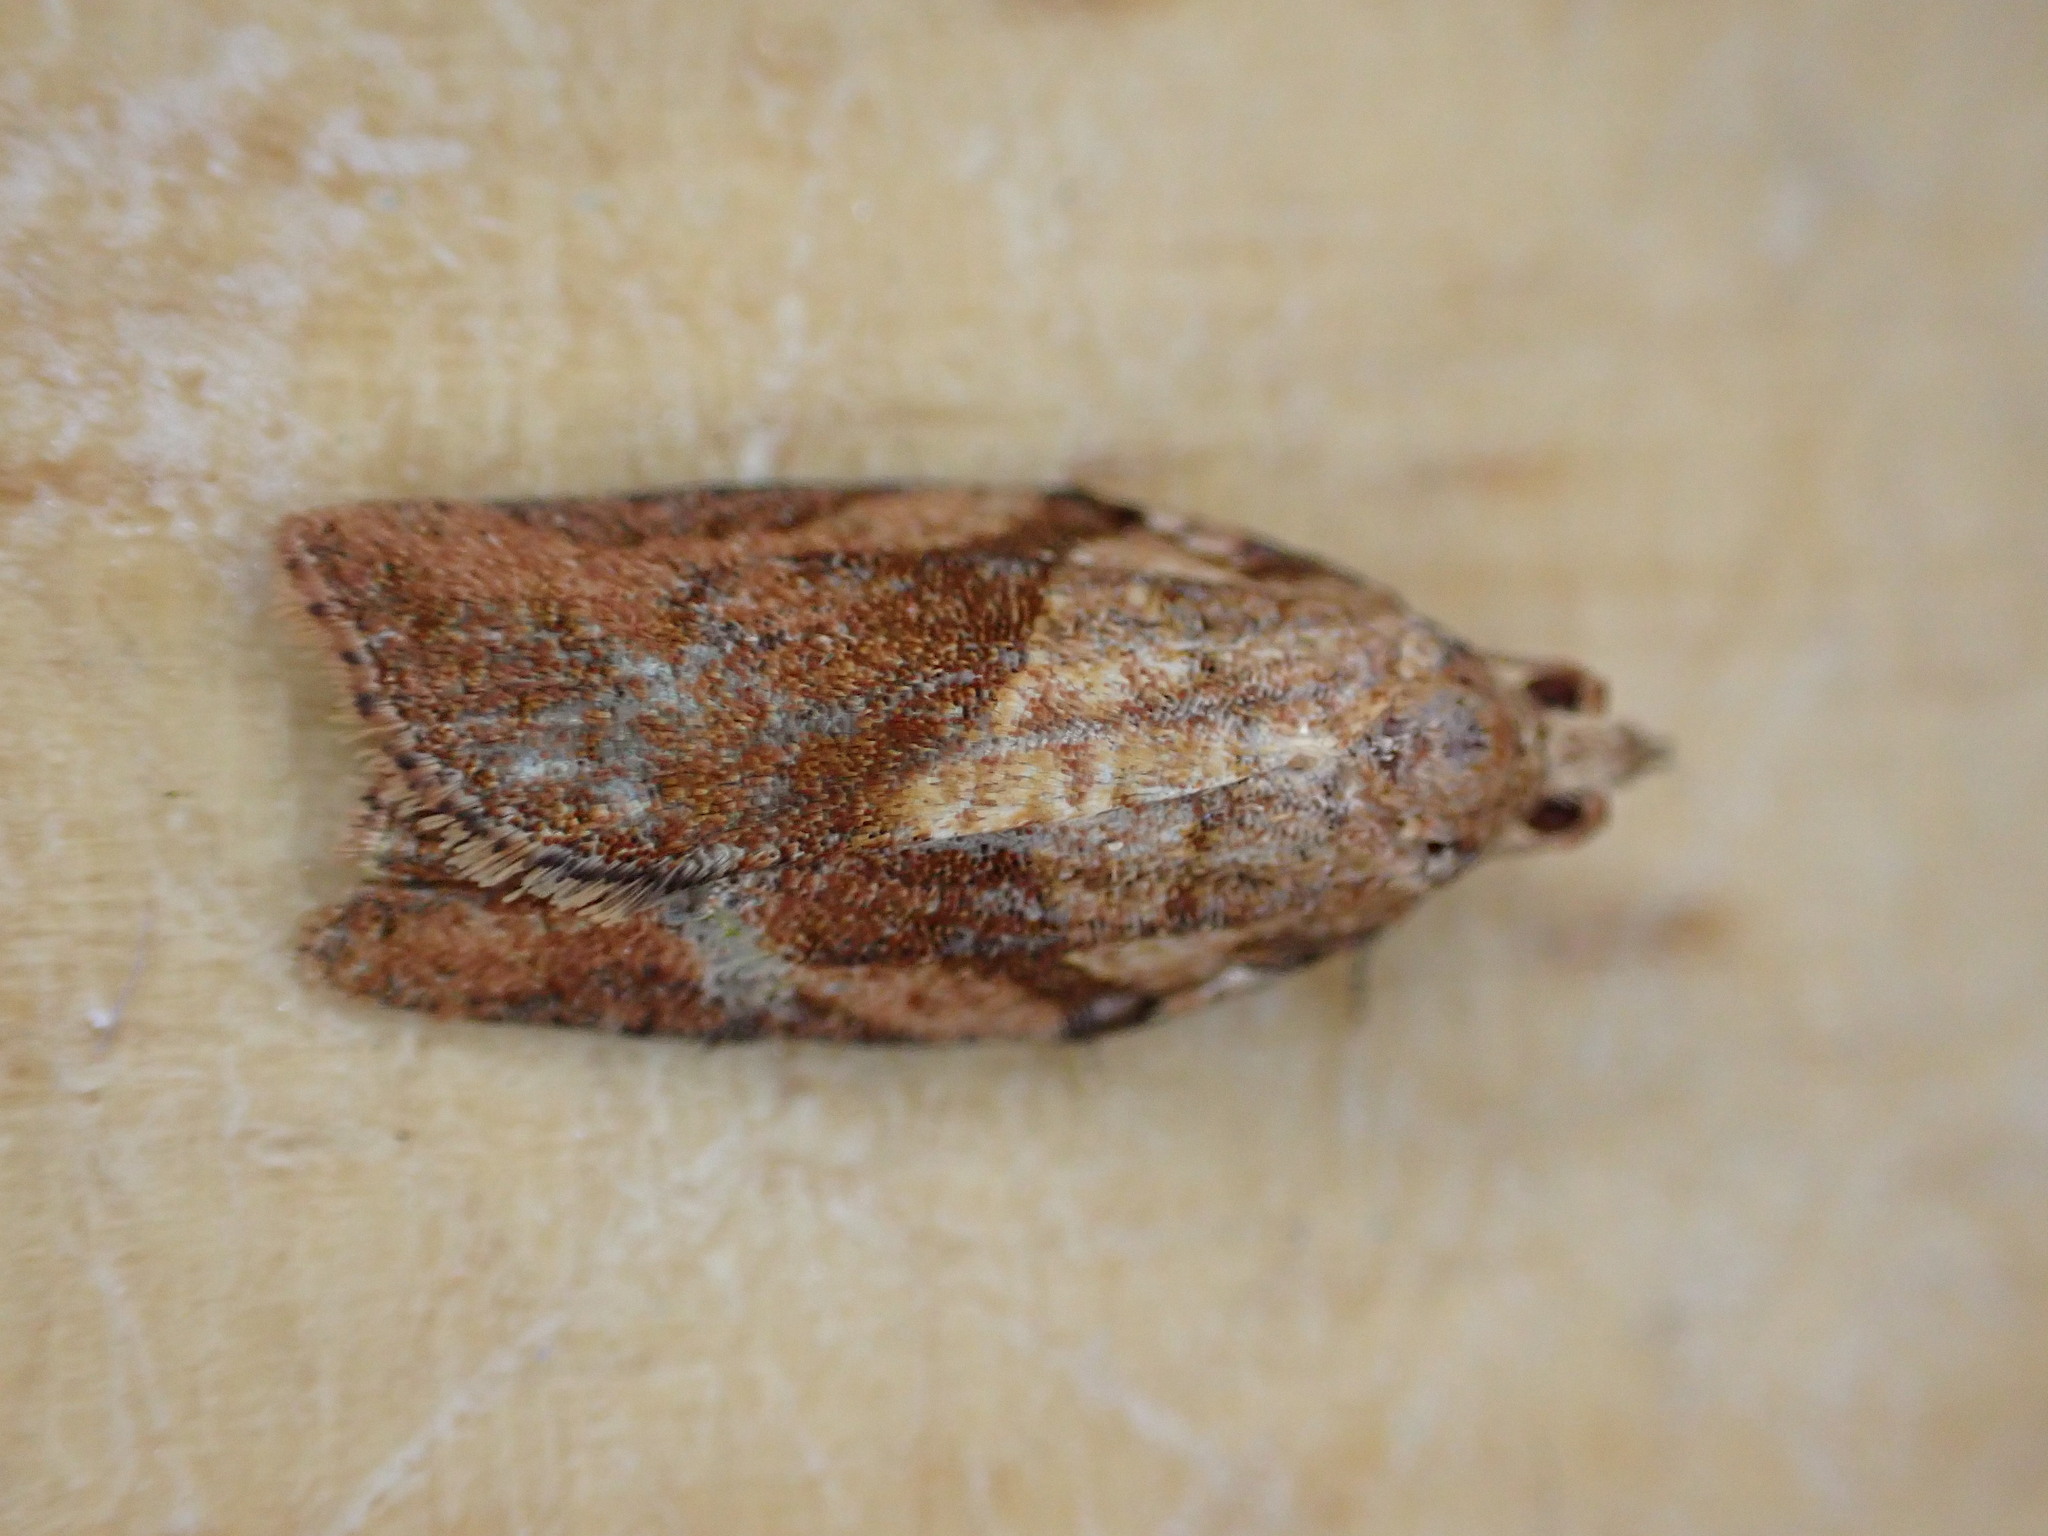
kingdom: Animalia
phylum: Arthropoda
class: Insecta
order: Lepidoptera
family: Tortricidae
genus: Epiphyas
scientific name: Epiphyas postvittana
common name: Light brown apple moth
